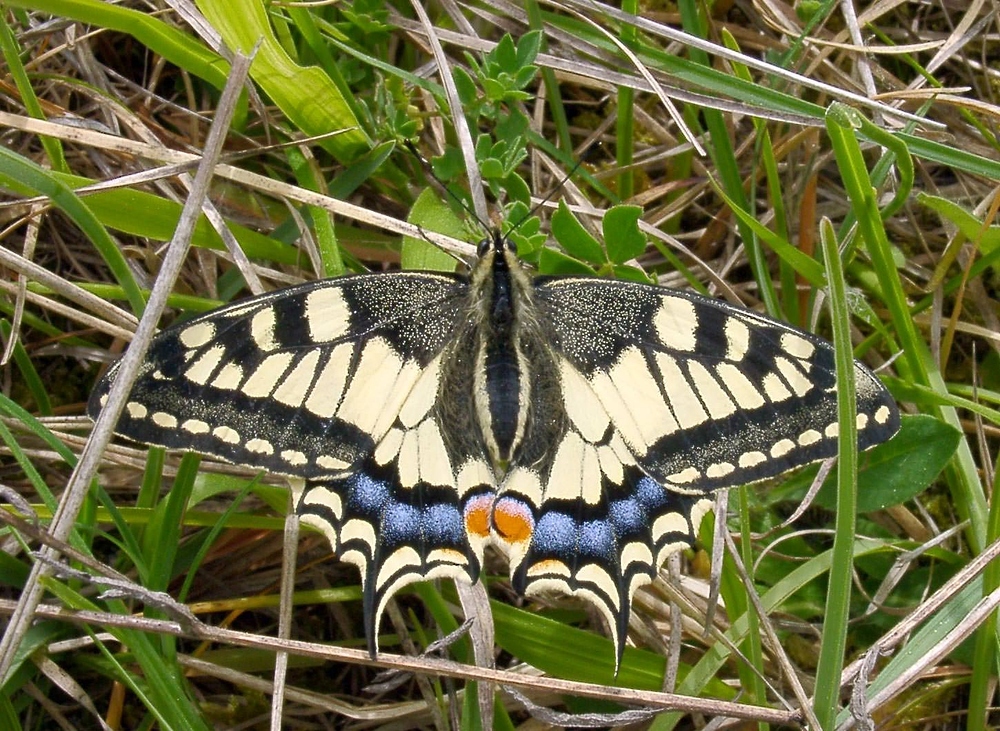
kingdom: Animalia
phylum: Arthropoda
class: Insecta
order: Lepidoptera
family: Papilionidae
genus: Papilio
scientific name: Papilio machaon
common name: Swallowtail
